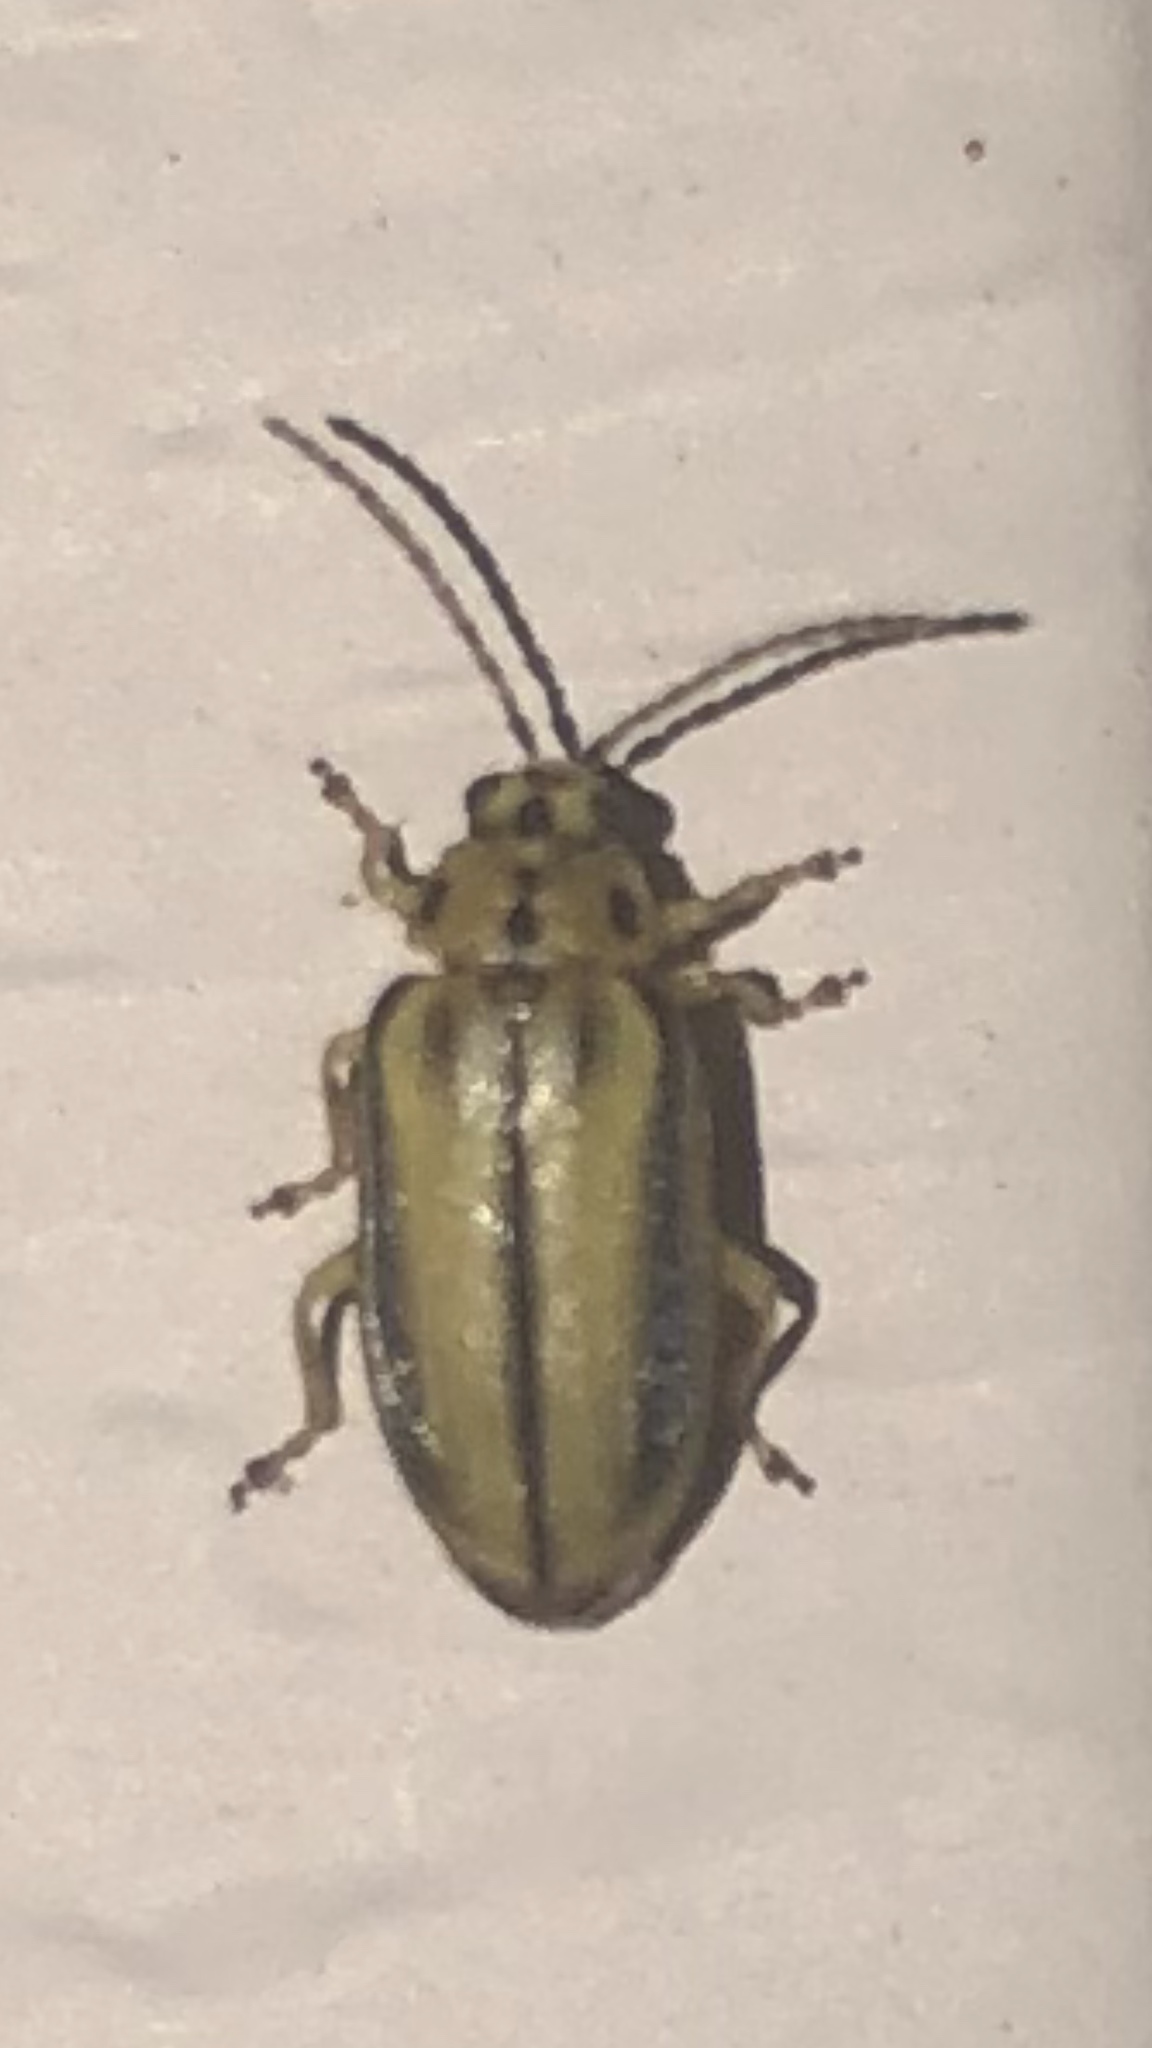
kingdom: Animalia
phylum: Arthropoda
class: Insecta
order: Coleoptera
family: Chrysomelidae
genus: Xanthogaleruca
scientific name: Xanthogaleruca luteola
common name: Elm leaf beetle
